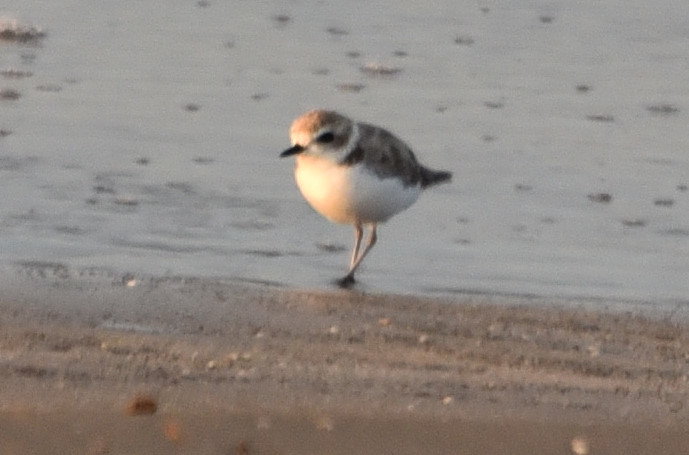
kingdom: Animalia
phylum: Chordata
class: Aves
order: Charadriiformes
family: Charadriidae
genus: Anarhynchus
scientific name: Anarhynchus
